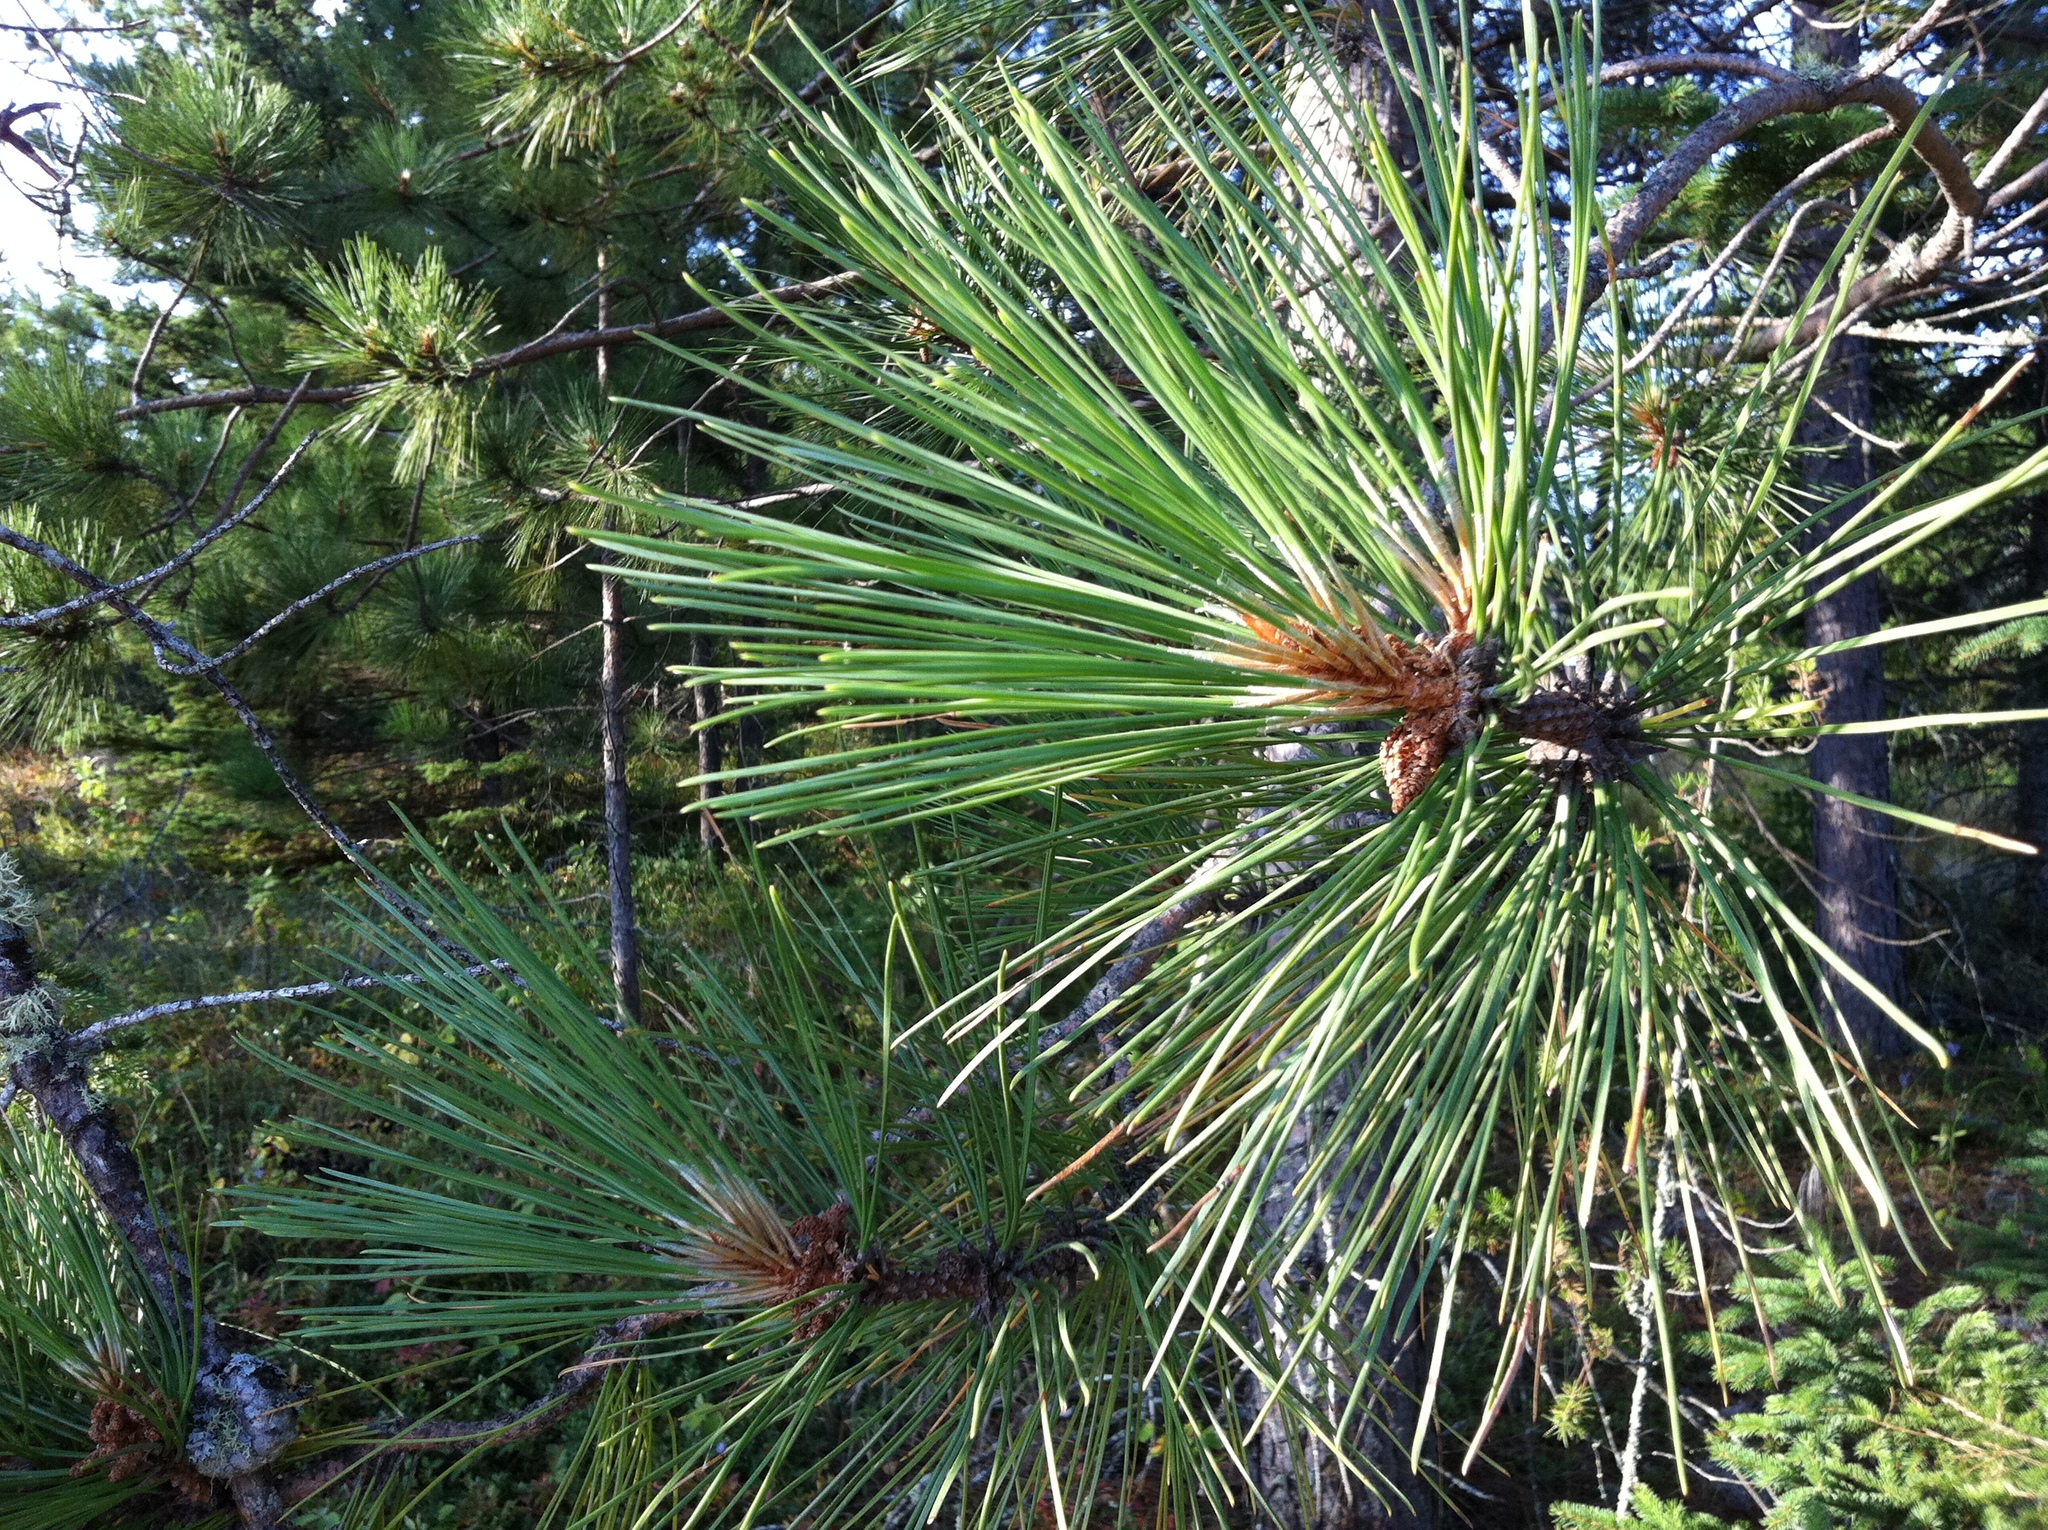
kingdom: Plantae
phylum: Tracheophyta
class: Pinopsida
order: Pinales
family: Pinaceae
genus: Pinus
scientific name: Pinus resinosa
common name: Norway pine
